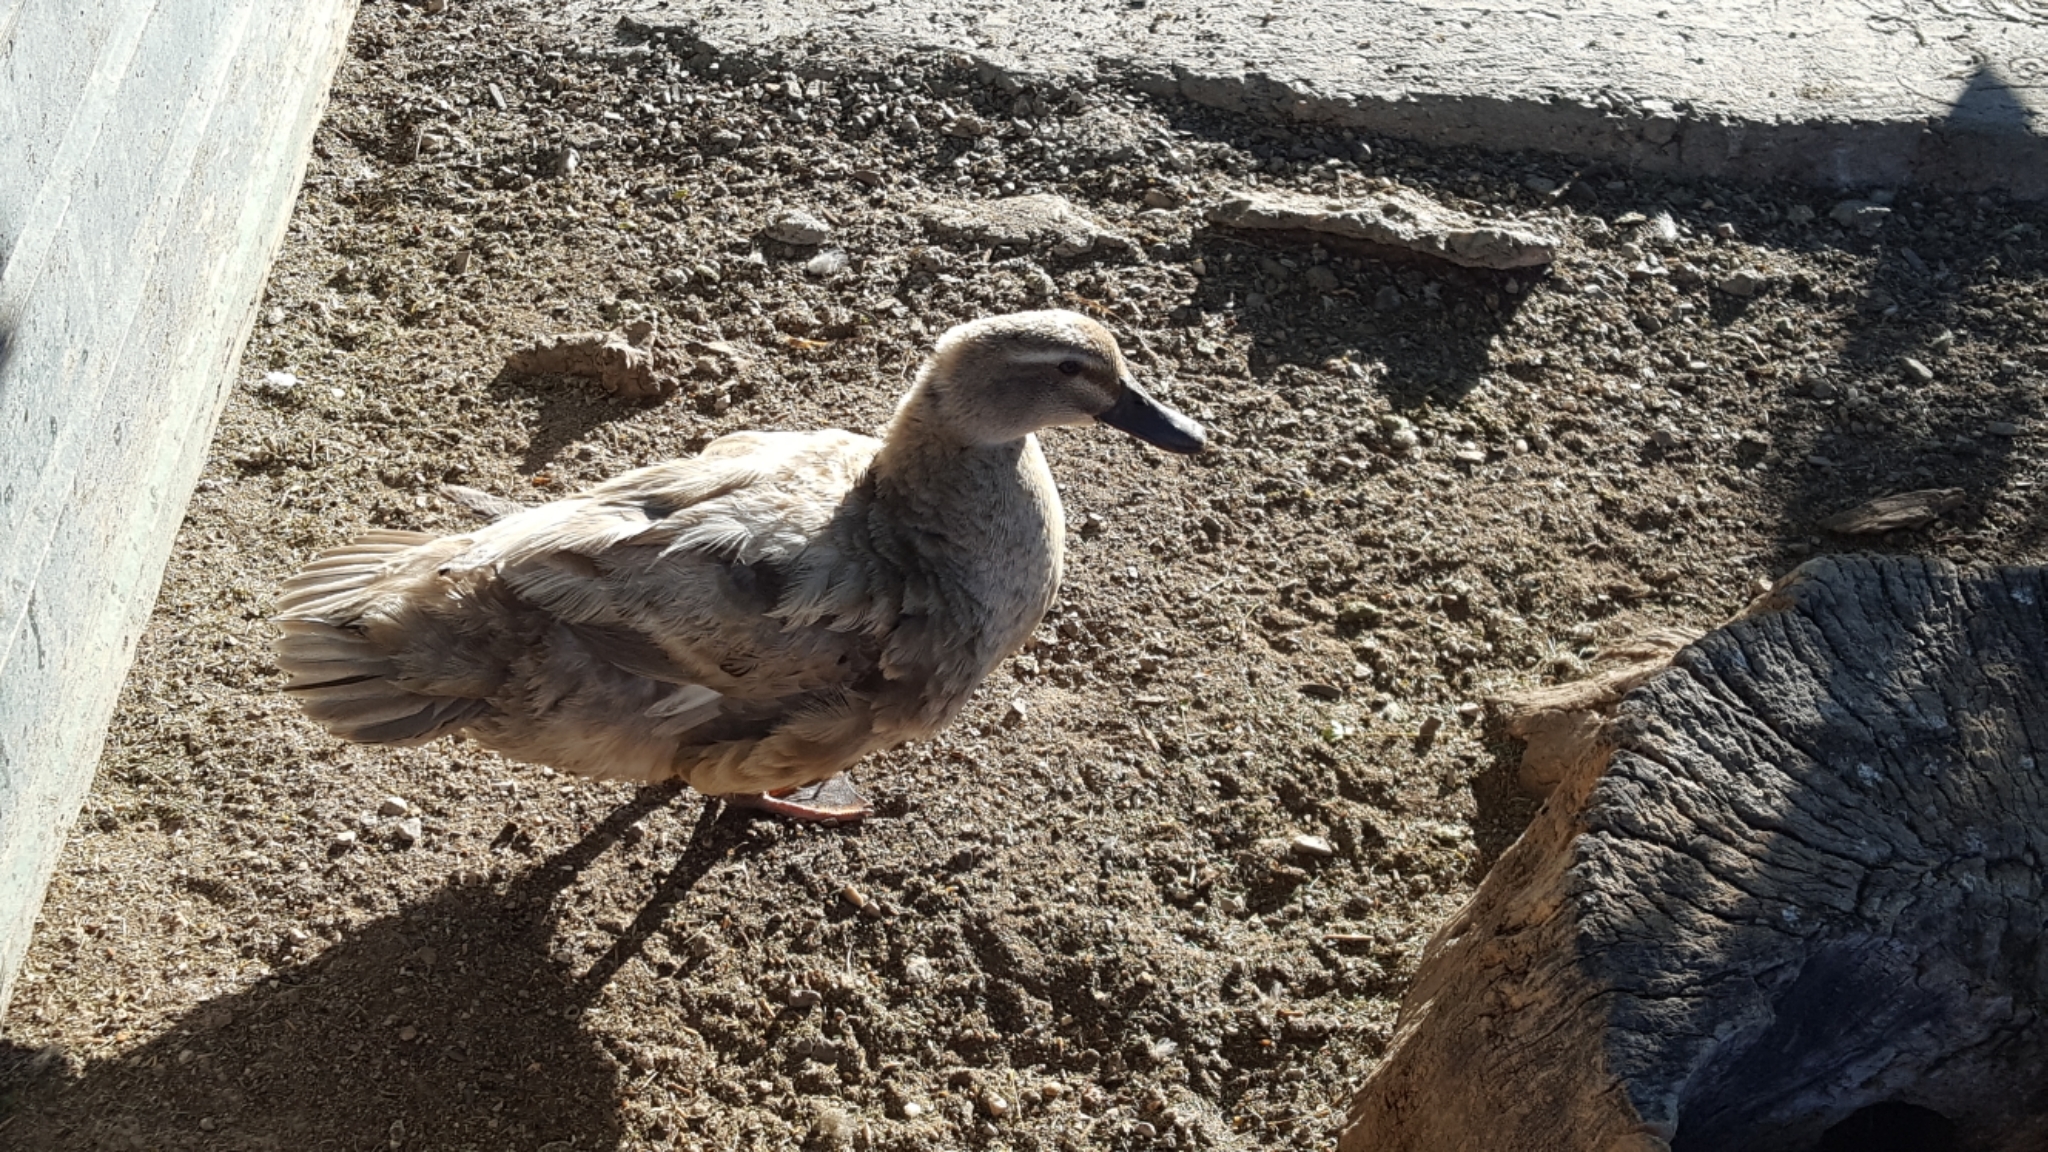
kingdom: Animalia
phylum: Chordata
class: Aves
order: Anseriformes
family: Anatidae
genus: Anas
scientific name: Anas platyrhynchos
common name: Mallard
